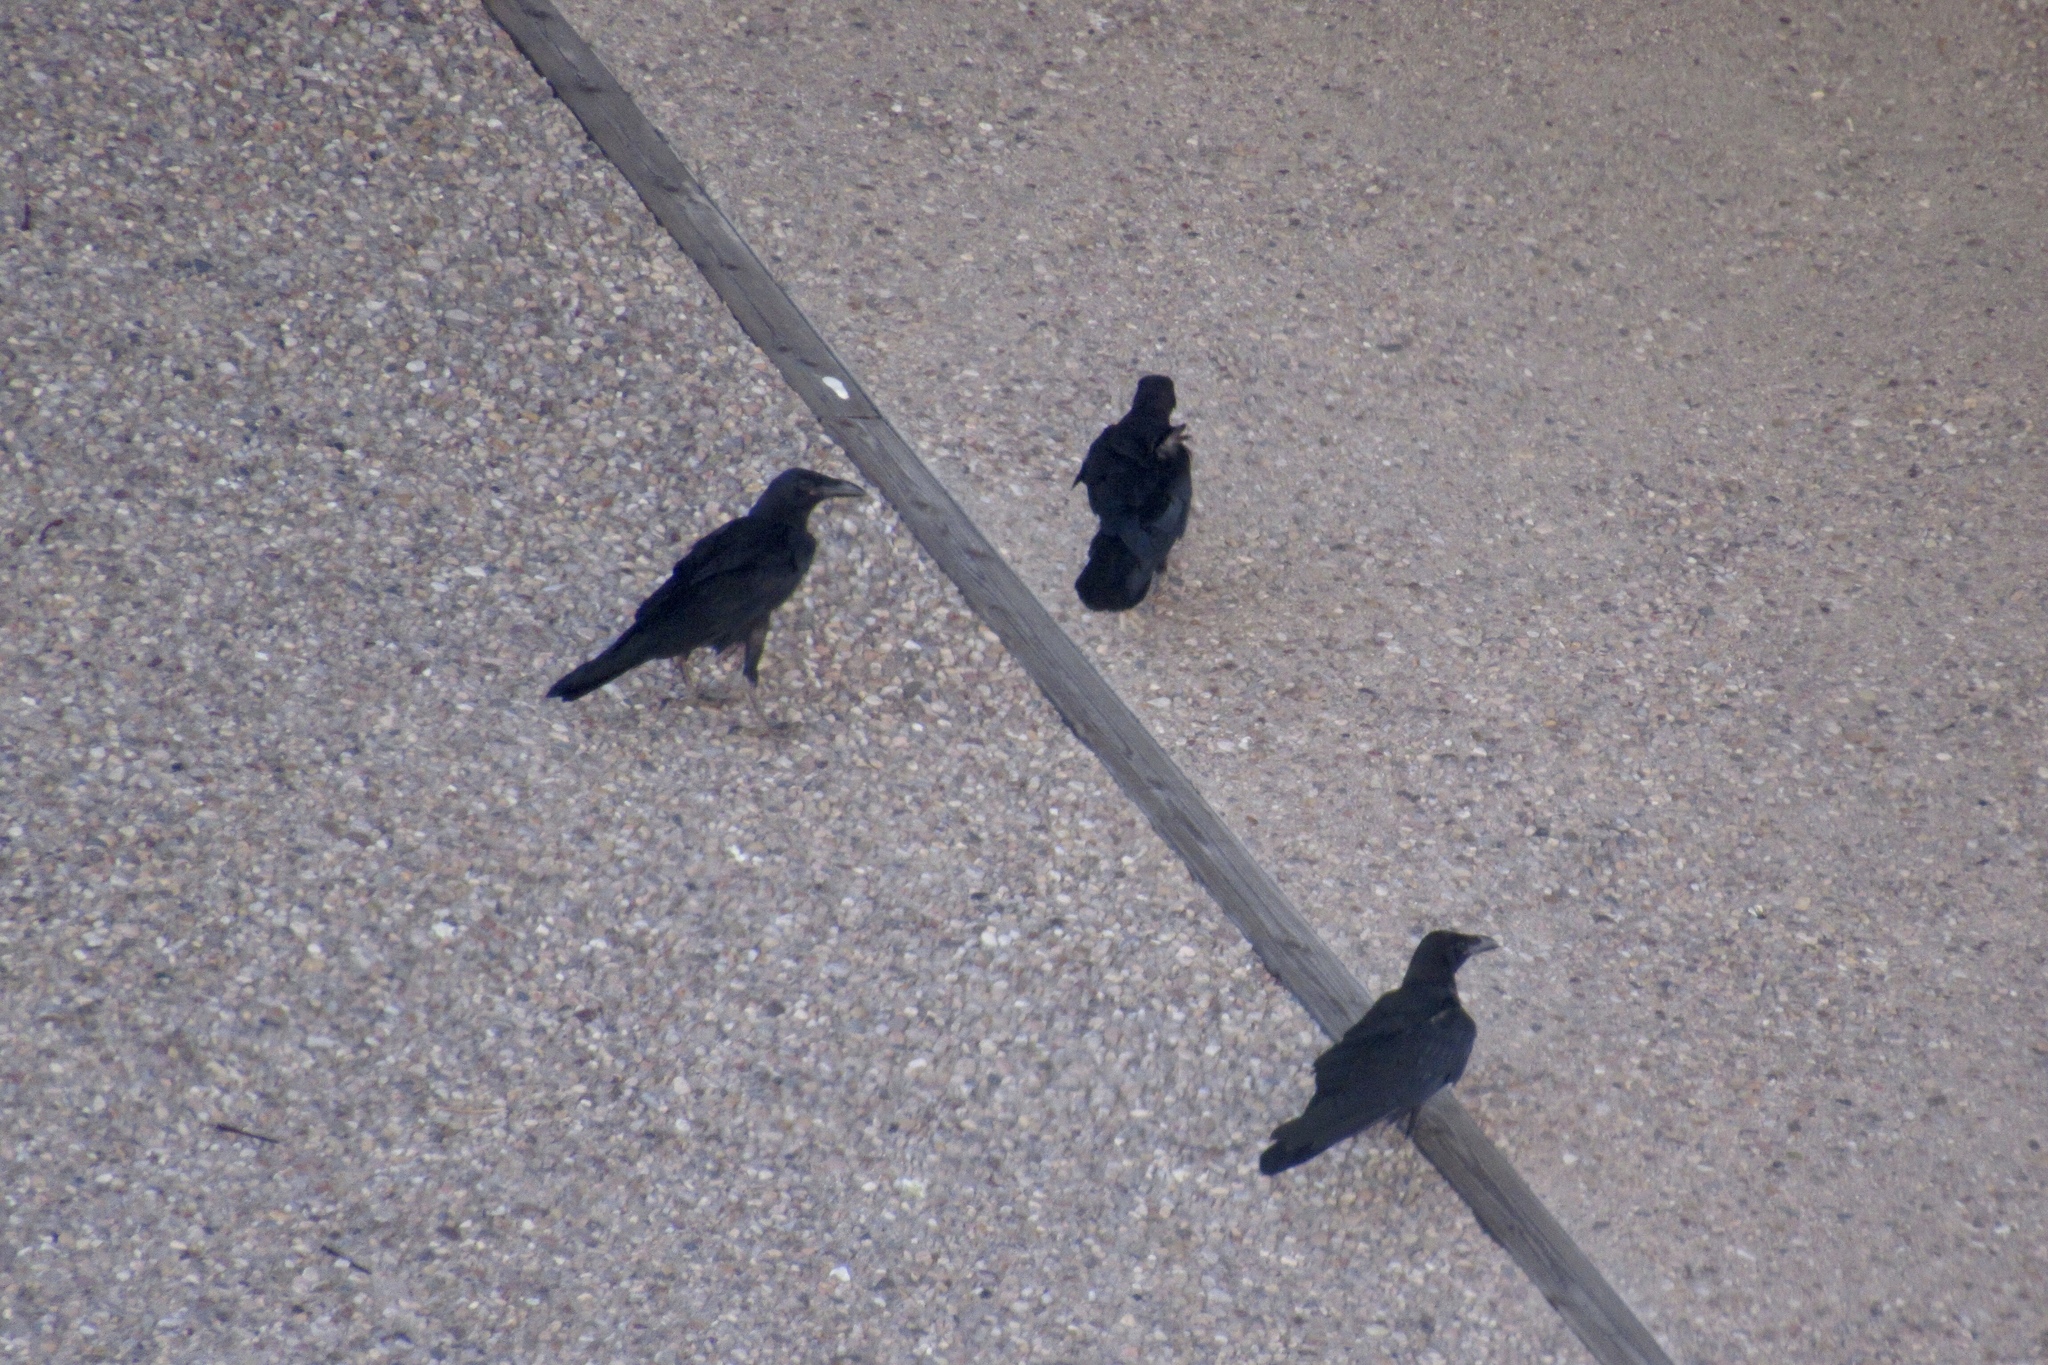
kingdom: Animalia
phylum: Chordata
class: Aves
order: Passeriformes
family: Corvidae
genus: Corvus
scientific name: Corvus cryptoleucus
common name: Chihuahuan raven
